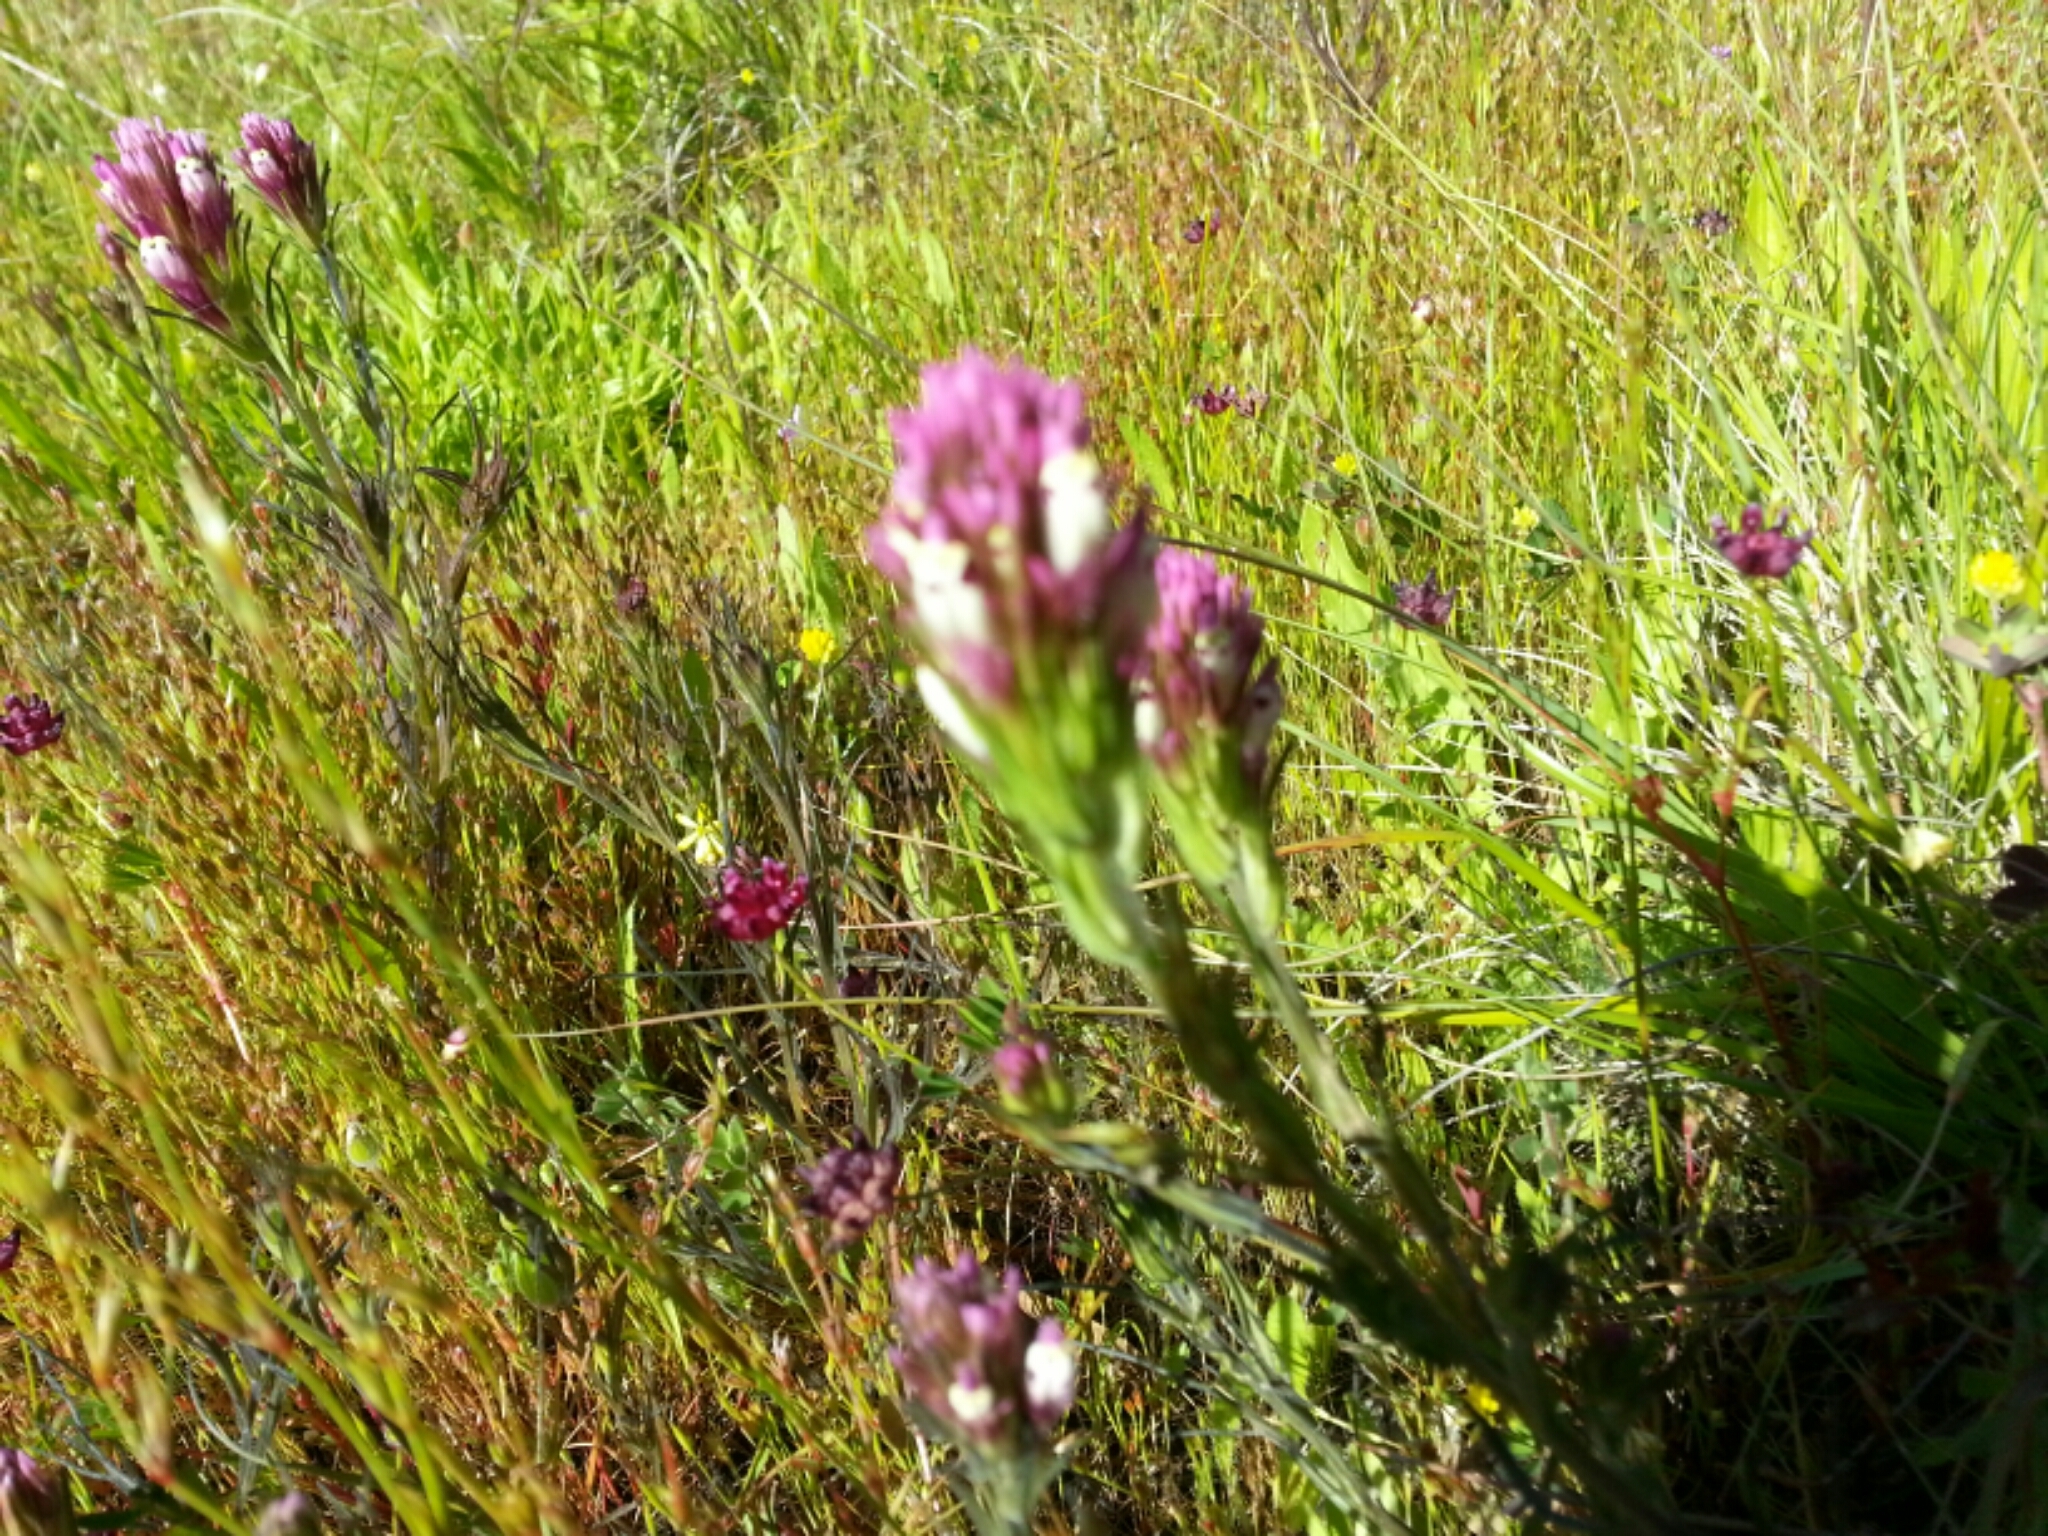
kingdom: Plantae
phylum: Tracheophyta
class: Magnoliopsida
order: Lamiales
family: Orobanchaceae
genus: Castilleja
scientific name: Castilleja densiflora
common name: Dense-flower indian paintbrush
